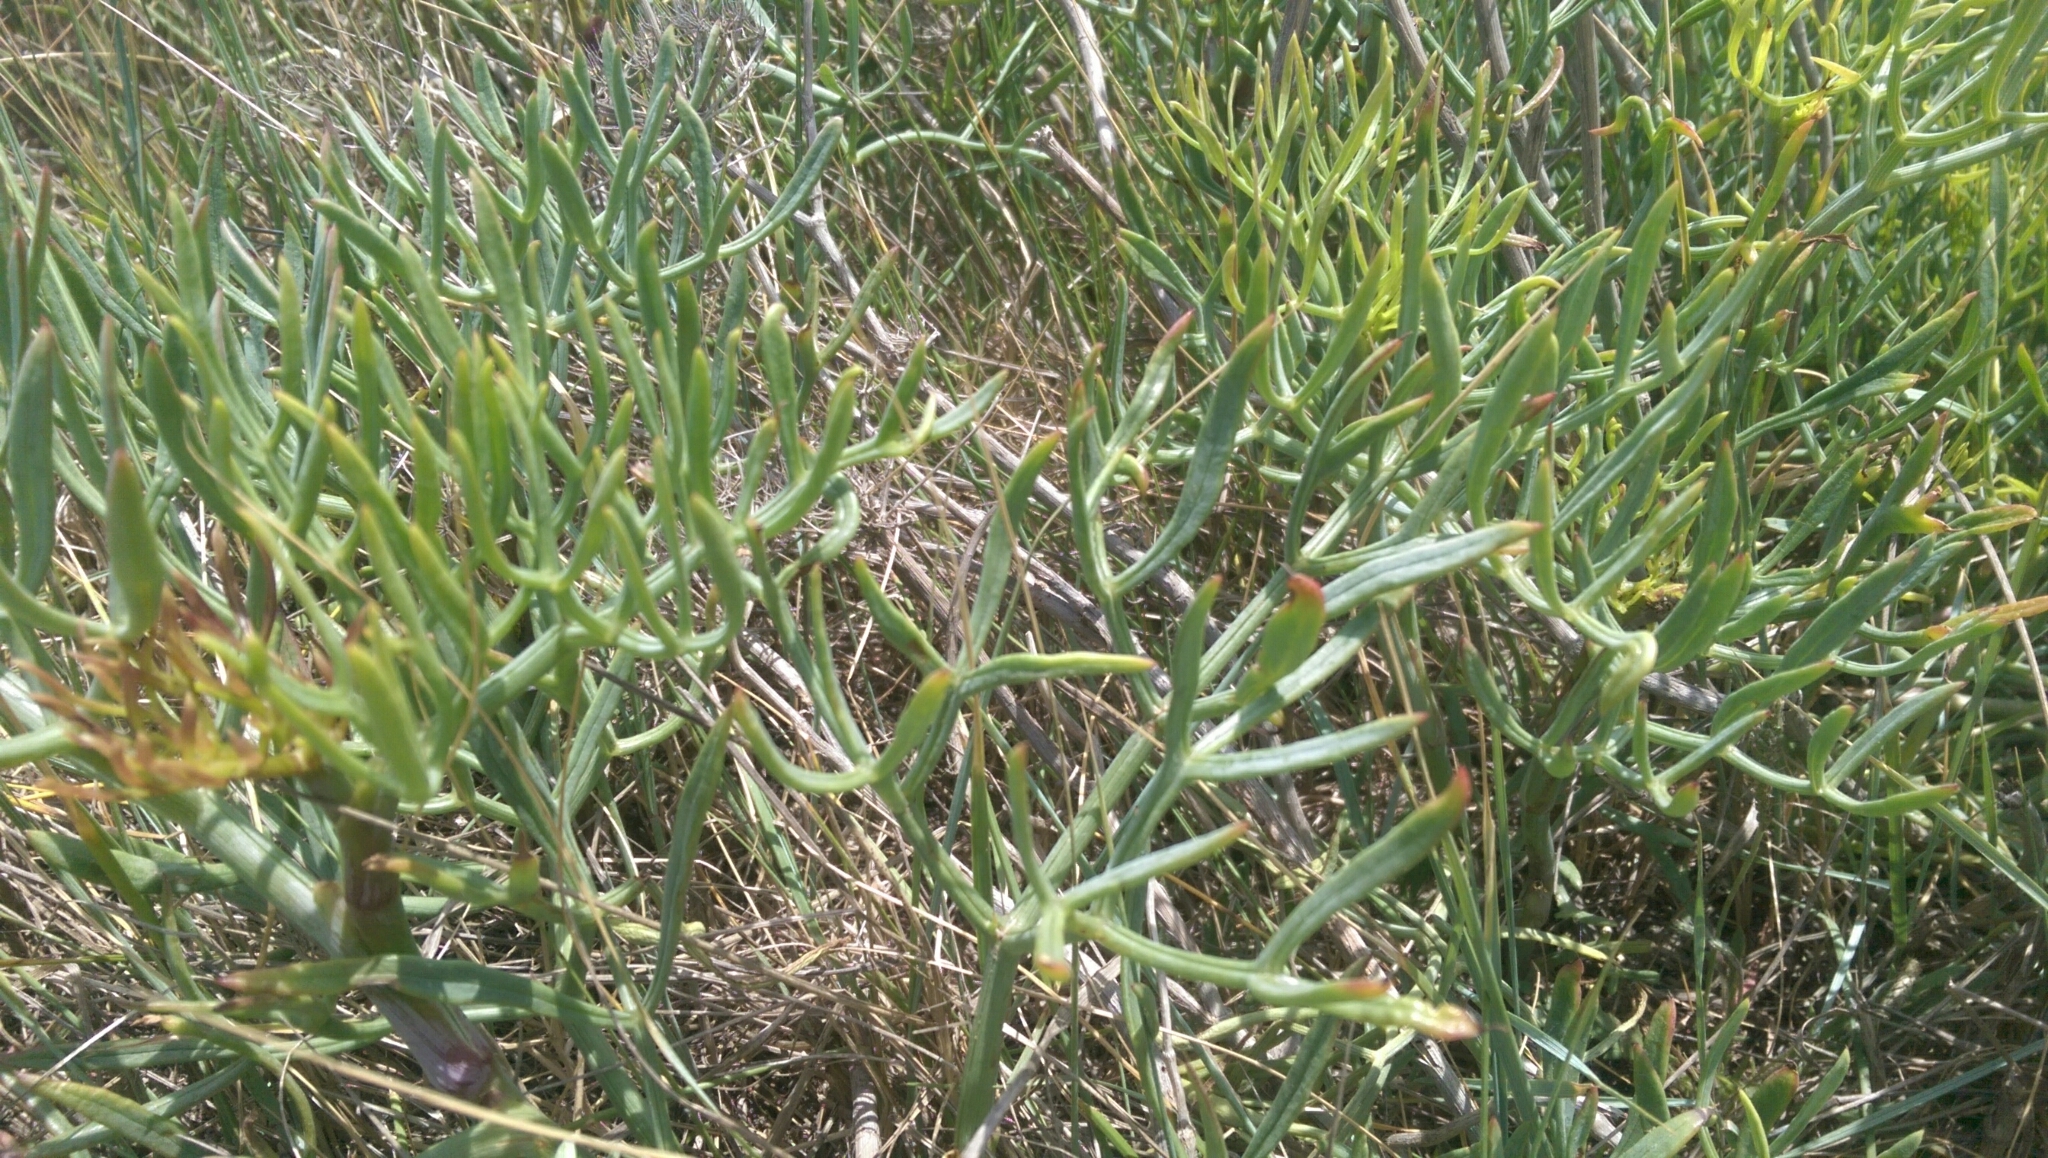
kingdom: Plantae
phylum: Tracheophyta
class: Magnoliopsida
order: Apiales
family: Apiaceae
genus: Crithmum
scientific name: Crithmum maritimum
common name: Rock samphire
